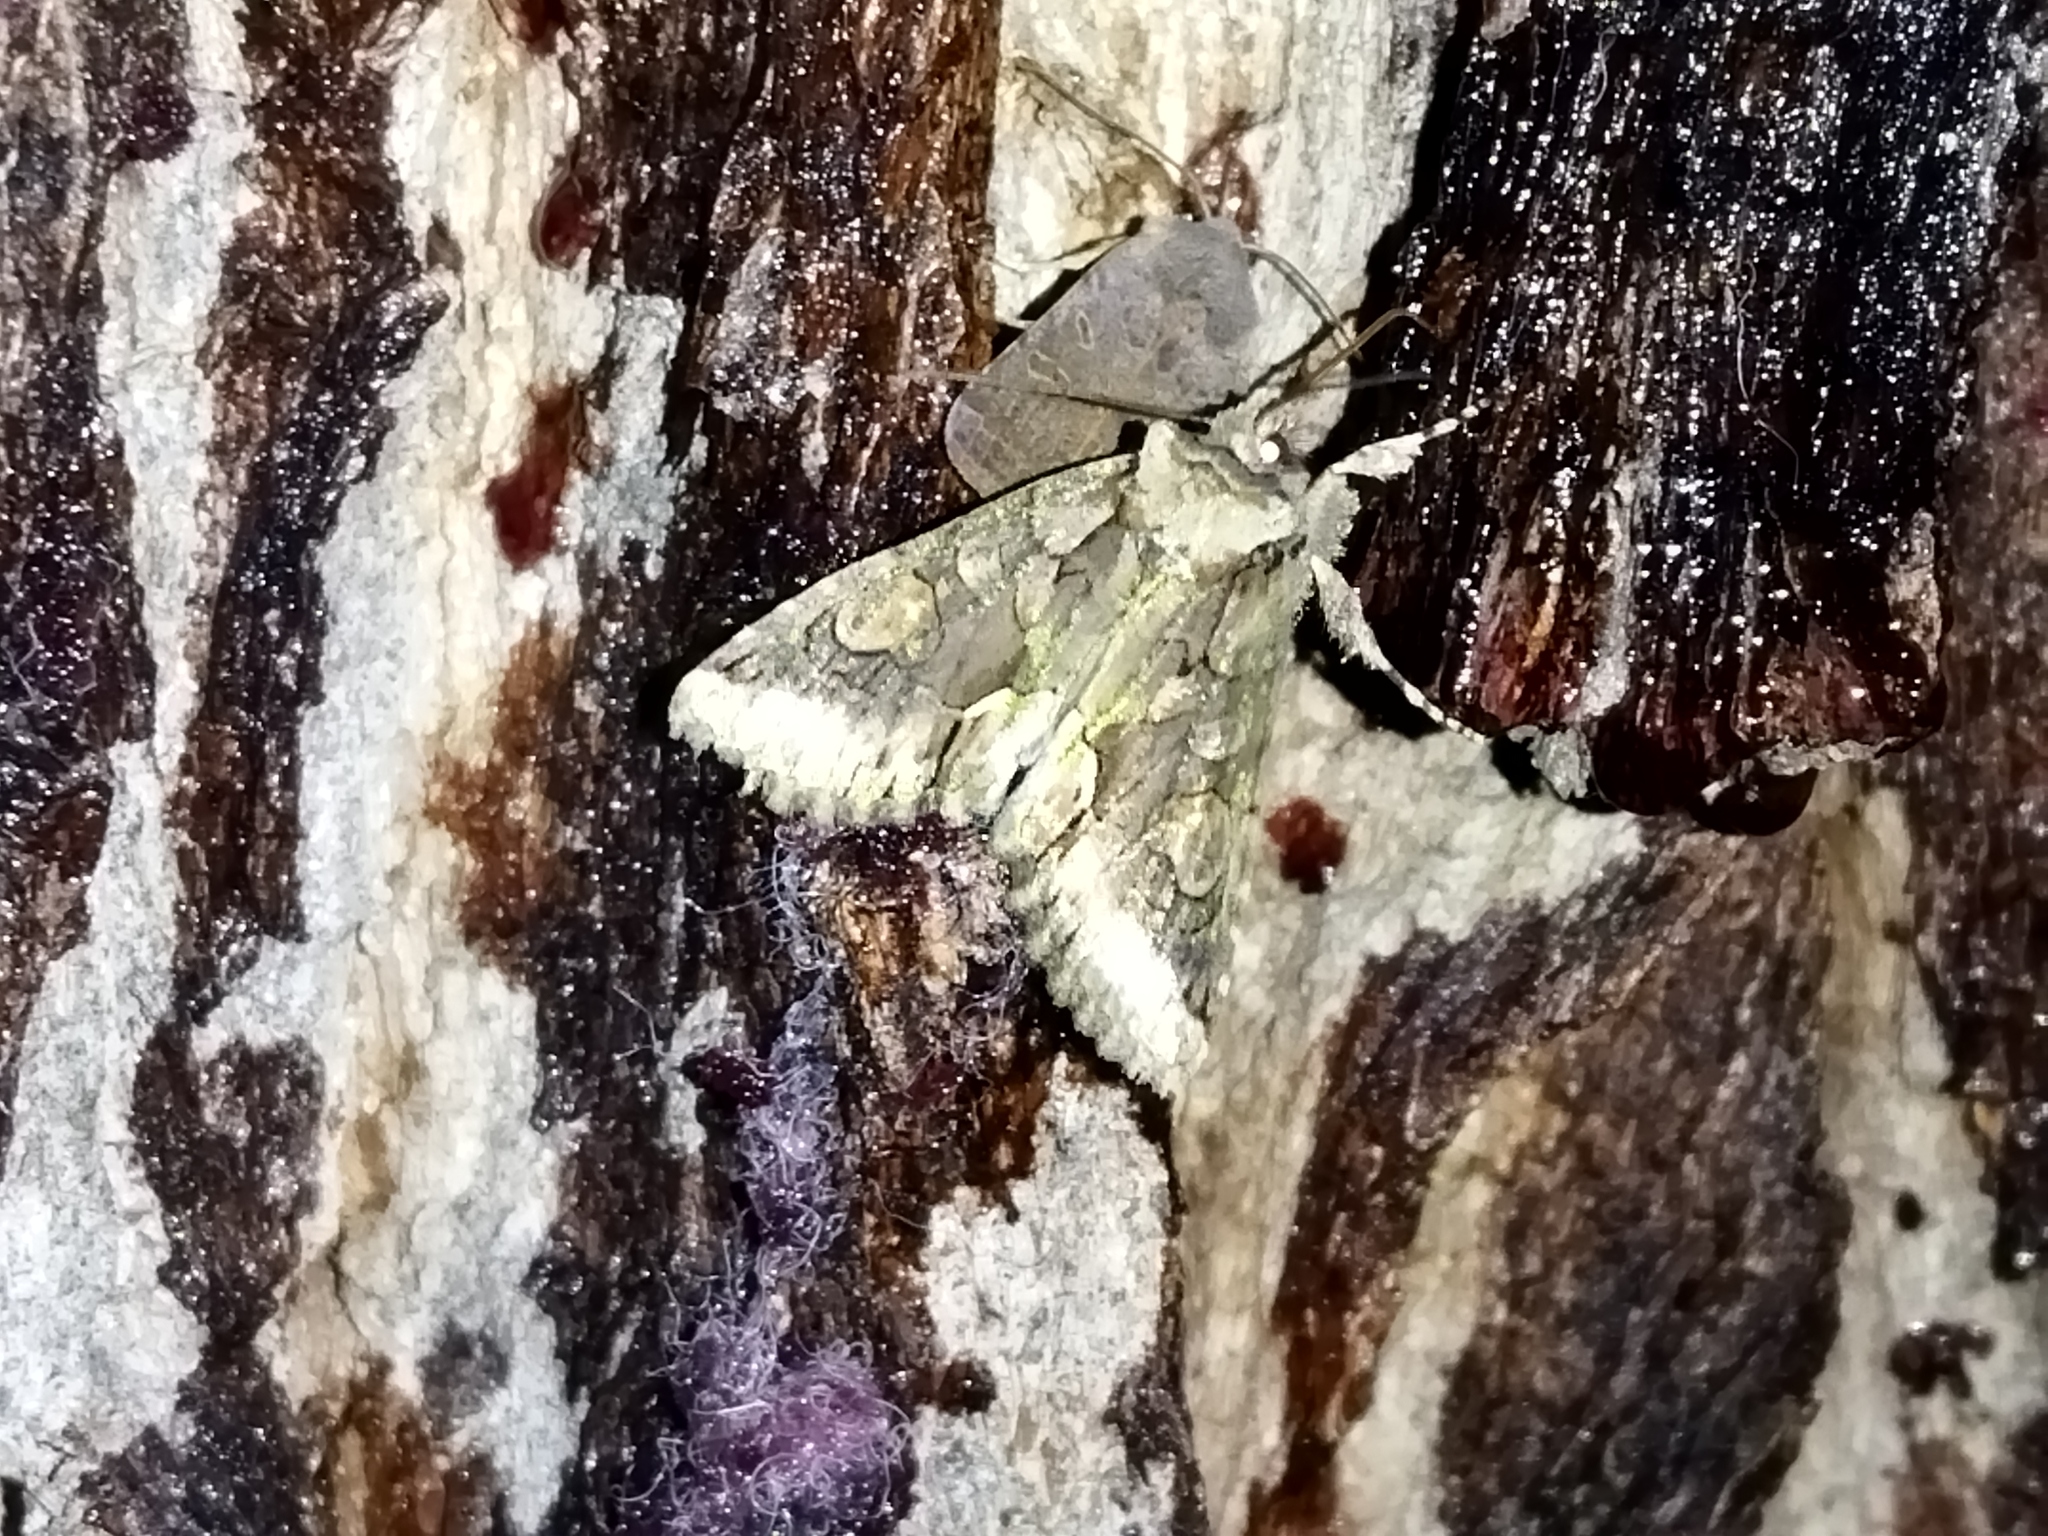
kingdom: Animalia
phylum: Arthropoda
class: Insecta
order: Lepidoptera
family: Noctuidae
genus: Allophyes
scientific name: Allophyes oxyacanthae
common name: Green-brindled crescent
